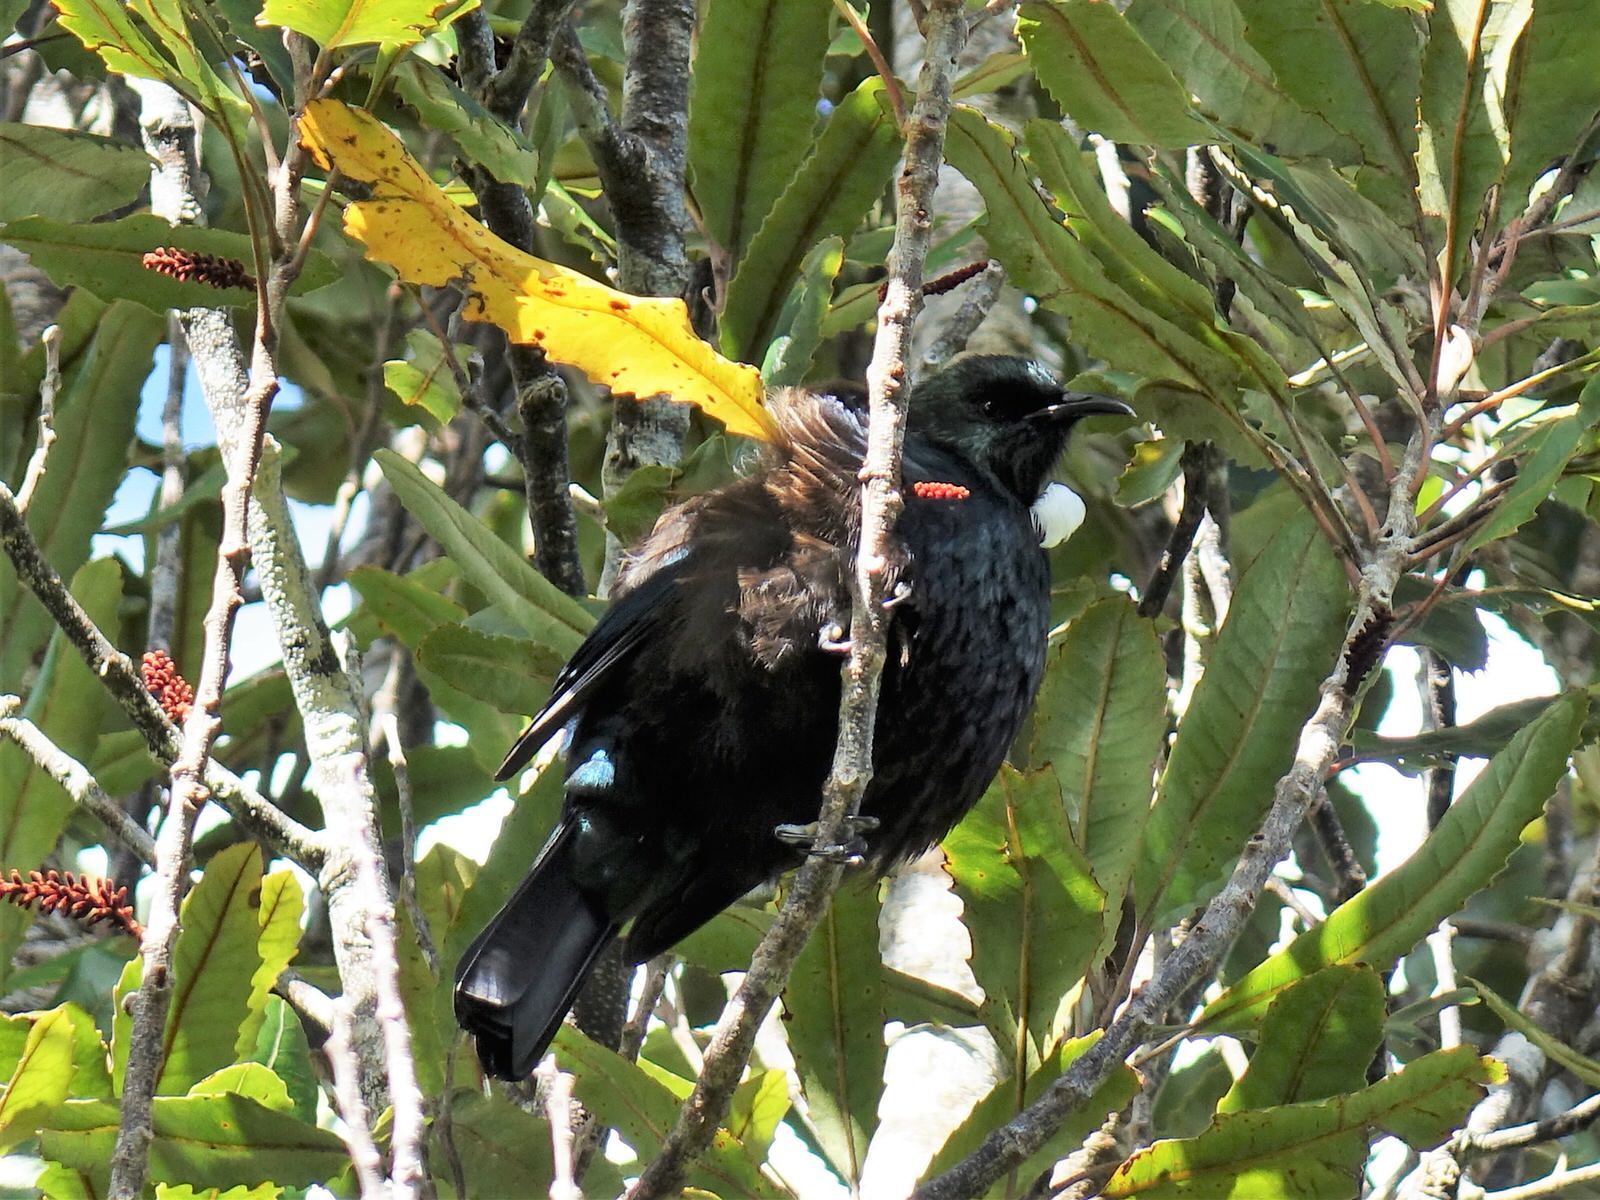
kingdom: Animalia
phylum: Chordata
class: Aves
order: Passeriformes
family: Meliphagidae
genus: Prosthemadera
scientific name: Prosthemadera novaeseelandiae
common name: Tui
